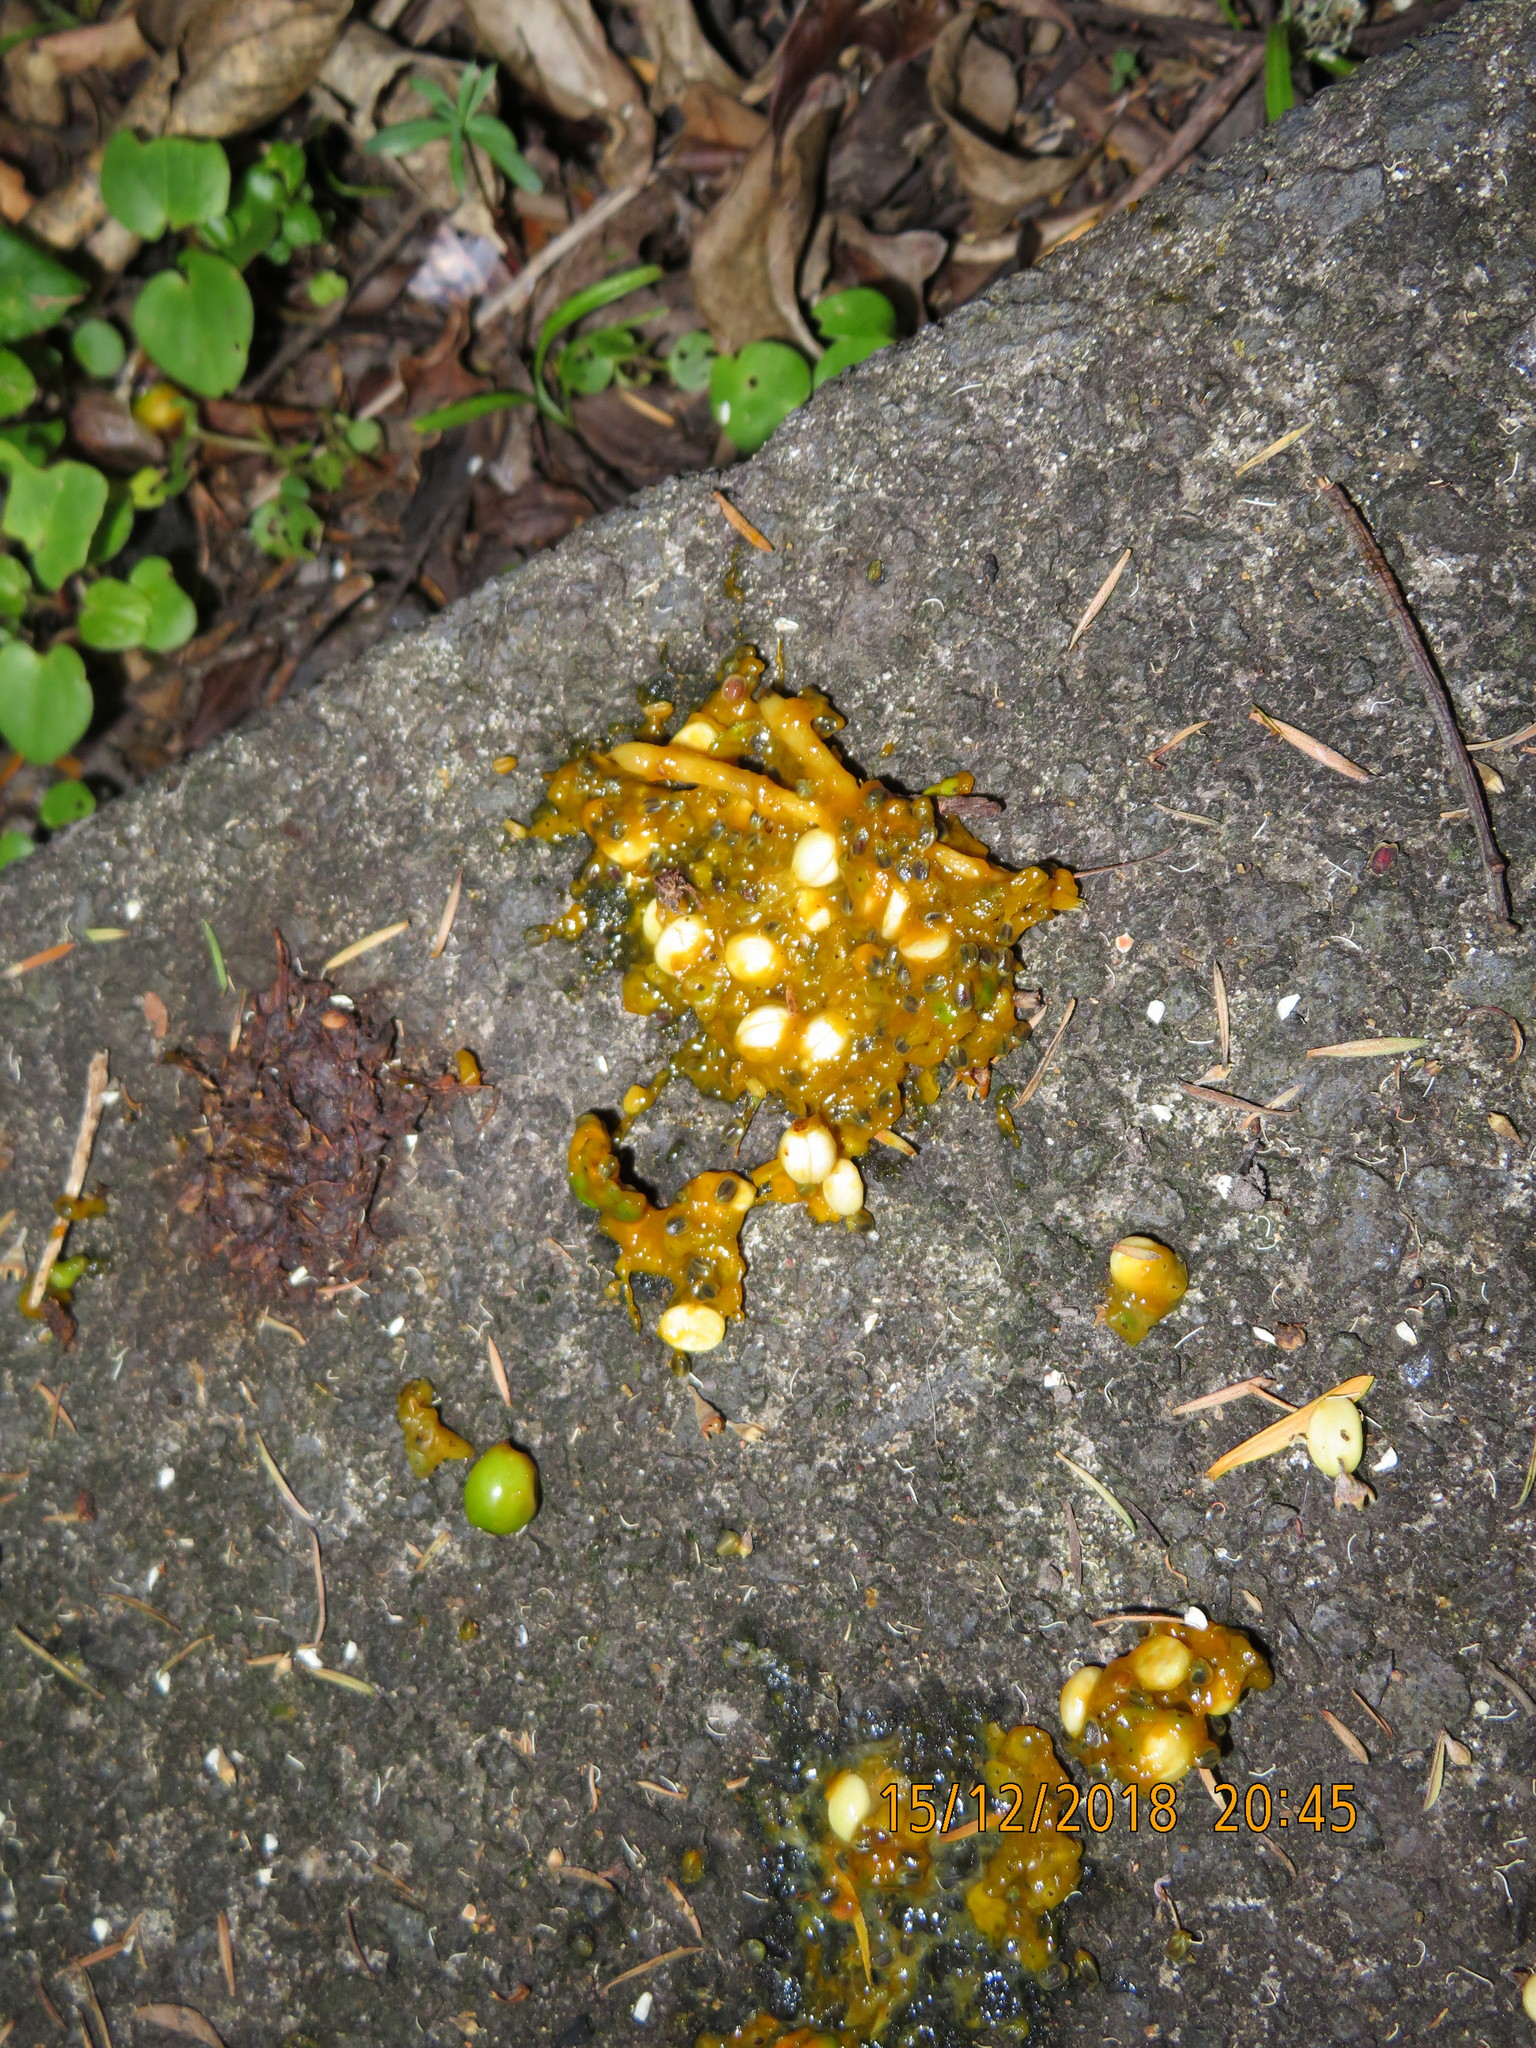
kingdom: Animalia
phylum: Chordata
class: Aves
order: Columbiformes
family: Columbidae
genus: Hemiphaga
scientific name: Hemiphaga novaeseelandiae
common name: New zealand pigeon
